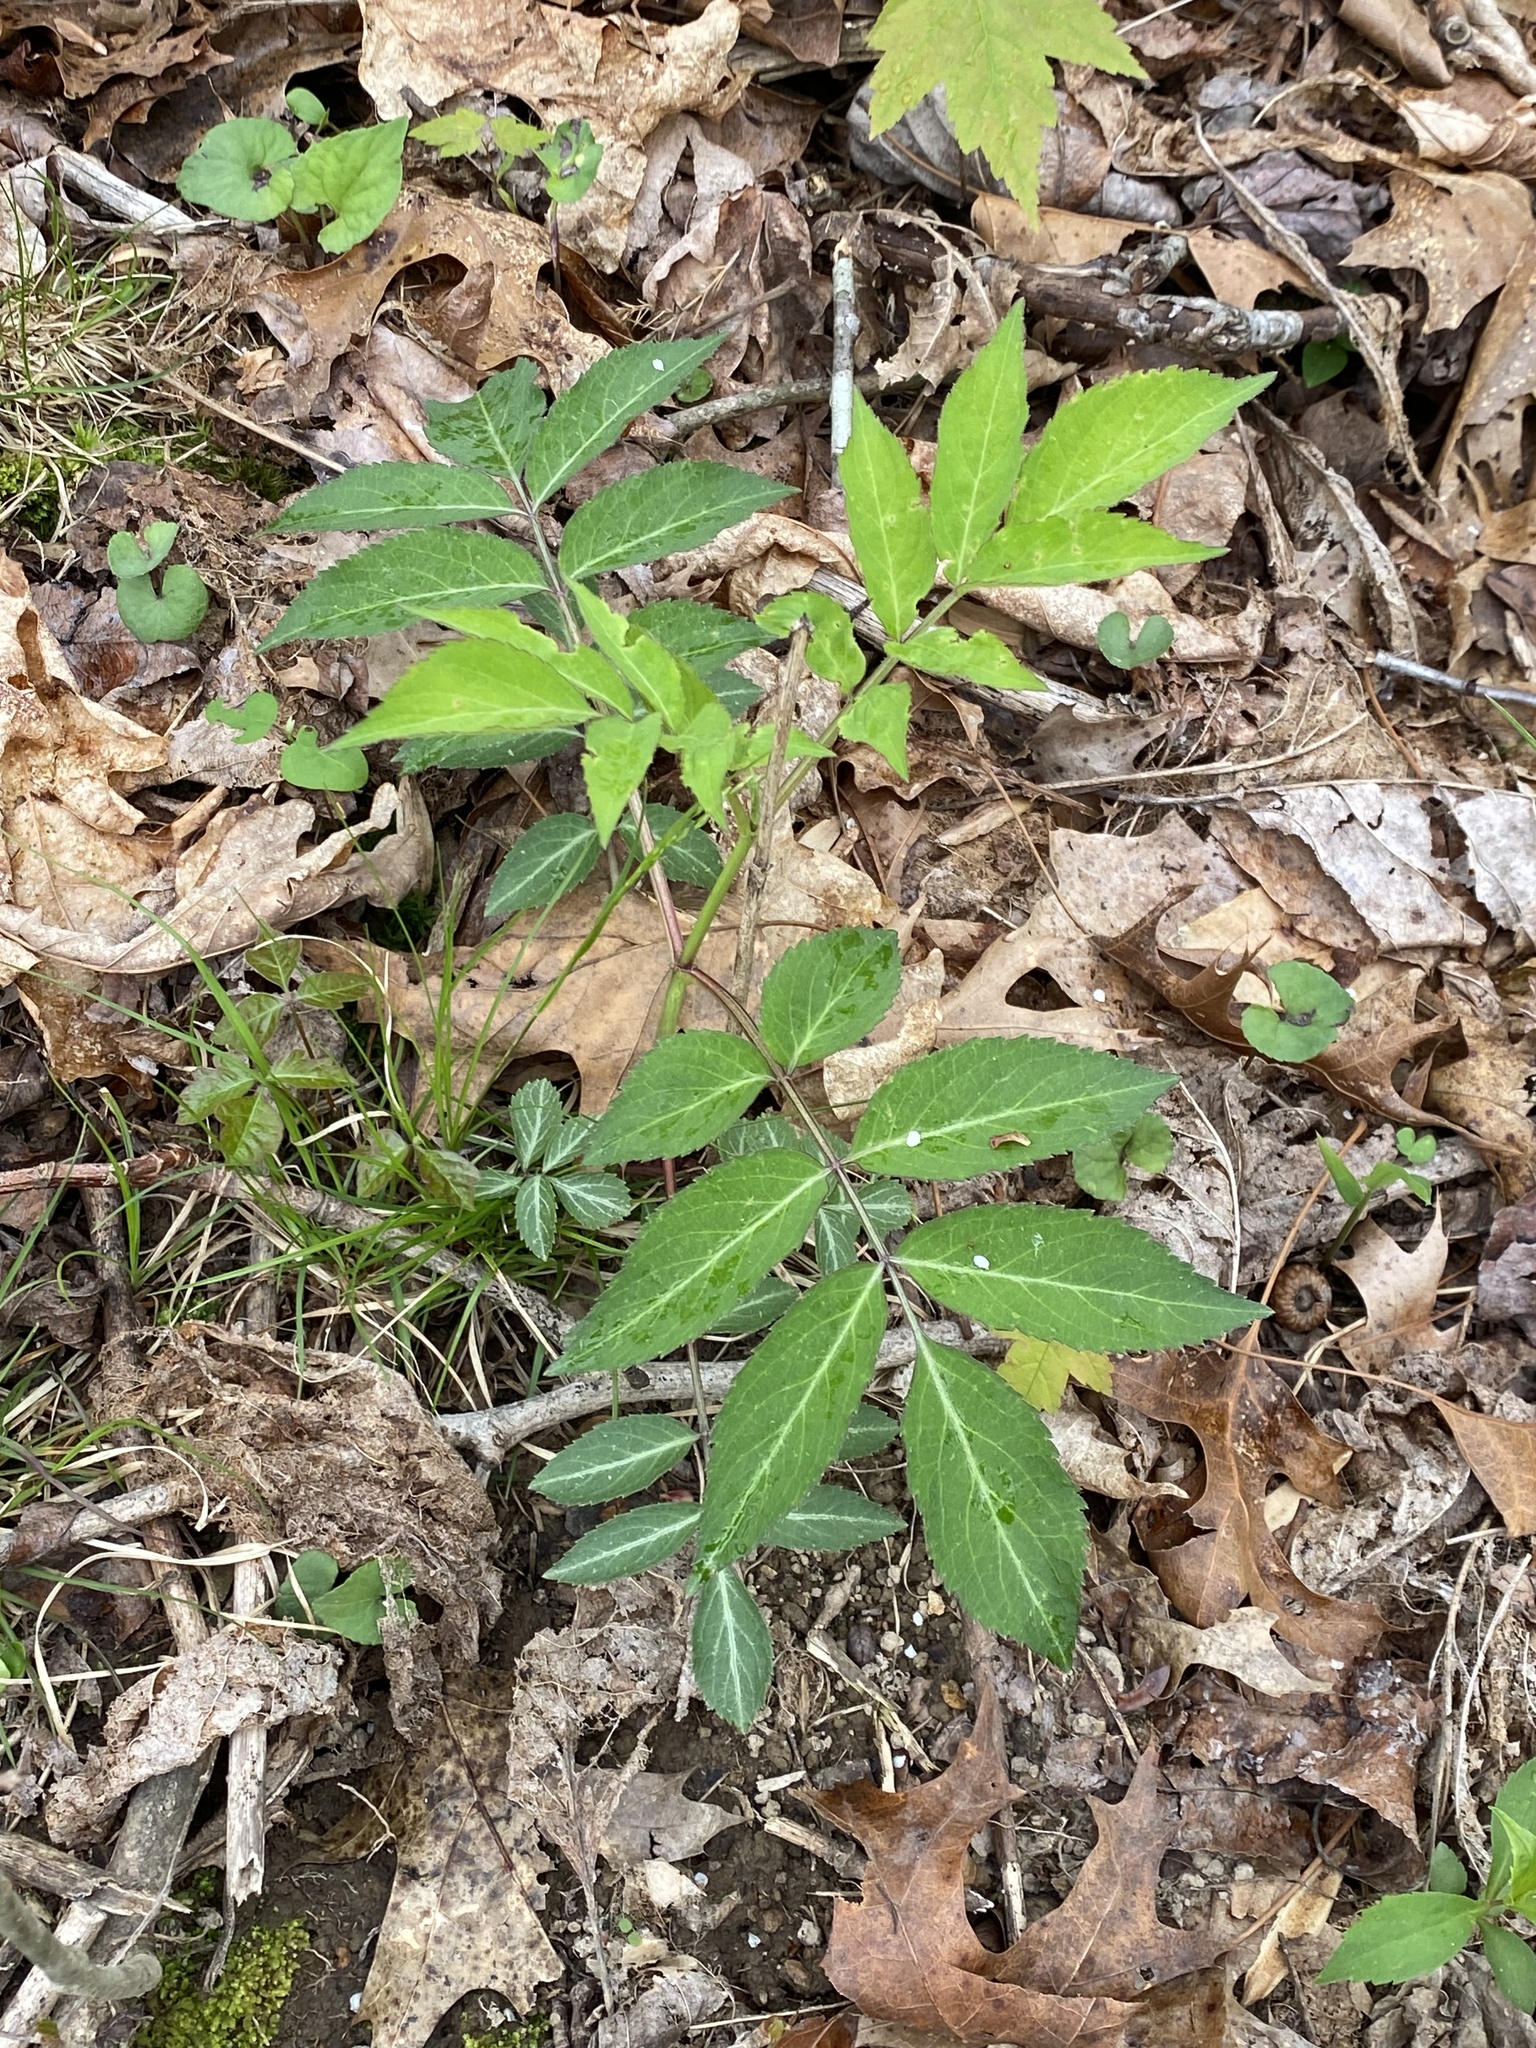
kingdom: Plantae
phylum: Tracheophyta
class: Magnoliopsida
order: Dipsacales
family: Viburnaceae
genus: Sambucus
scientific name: Sambucus canadensis
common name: American elder
